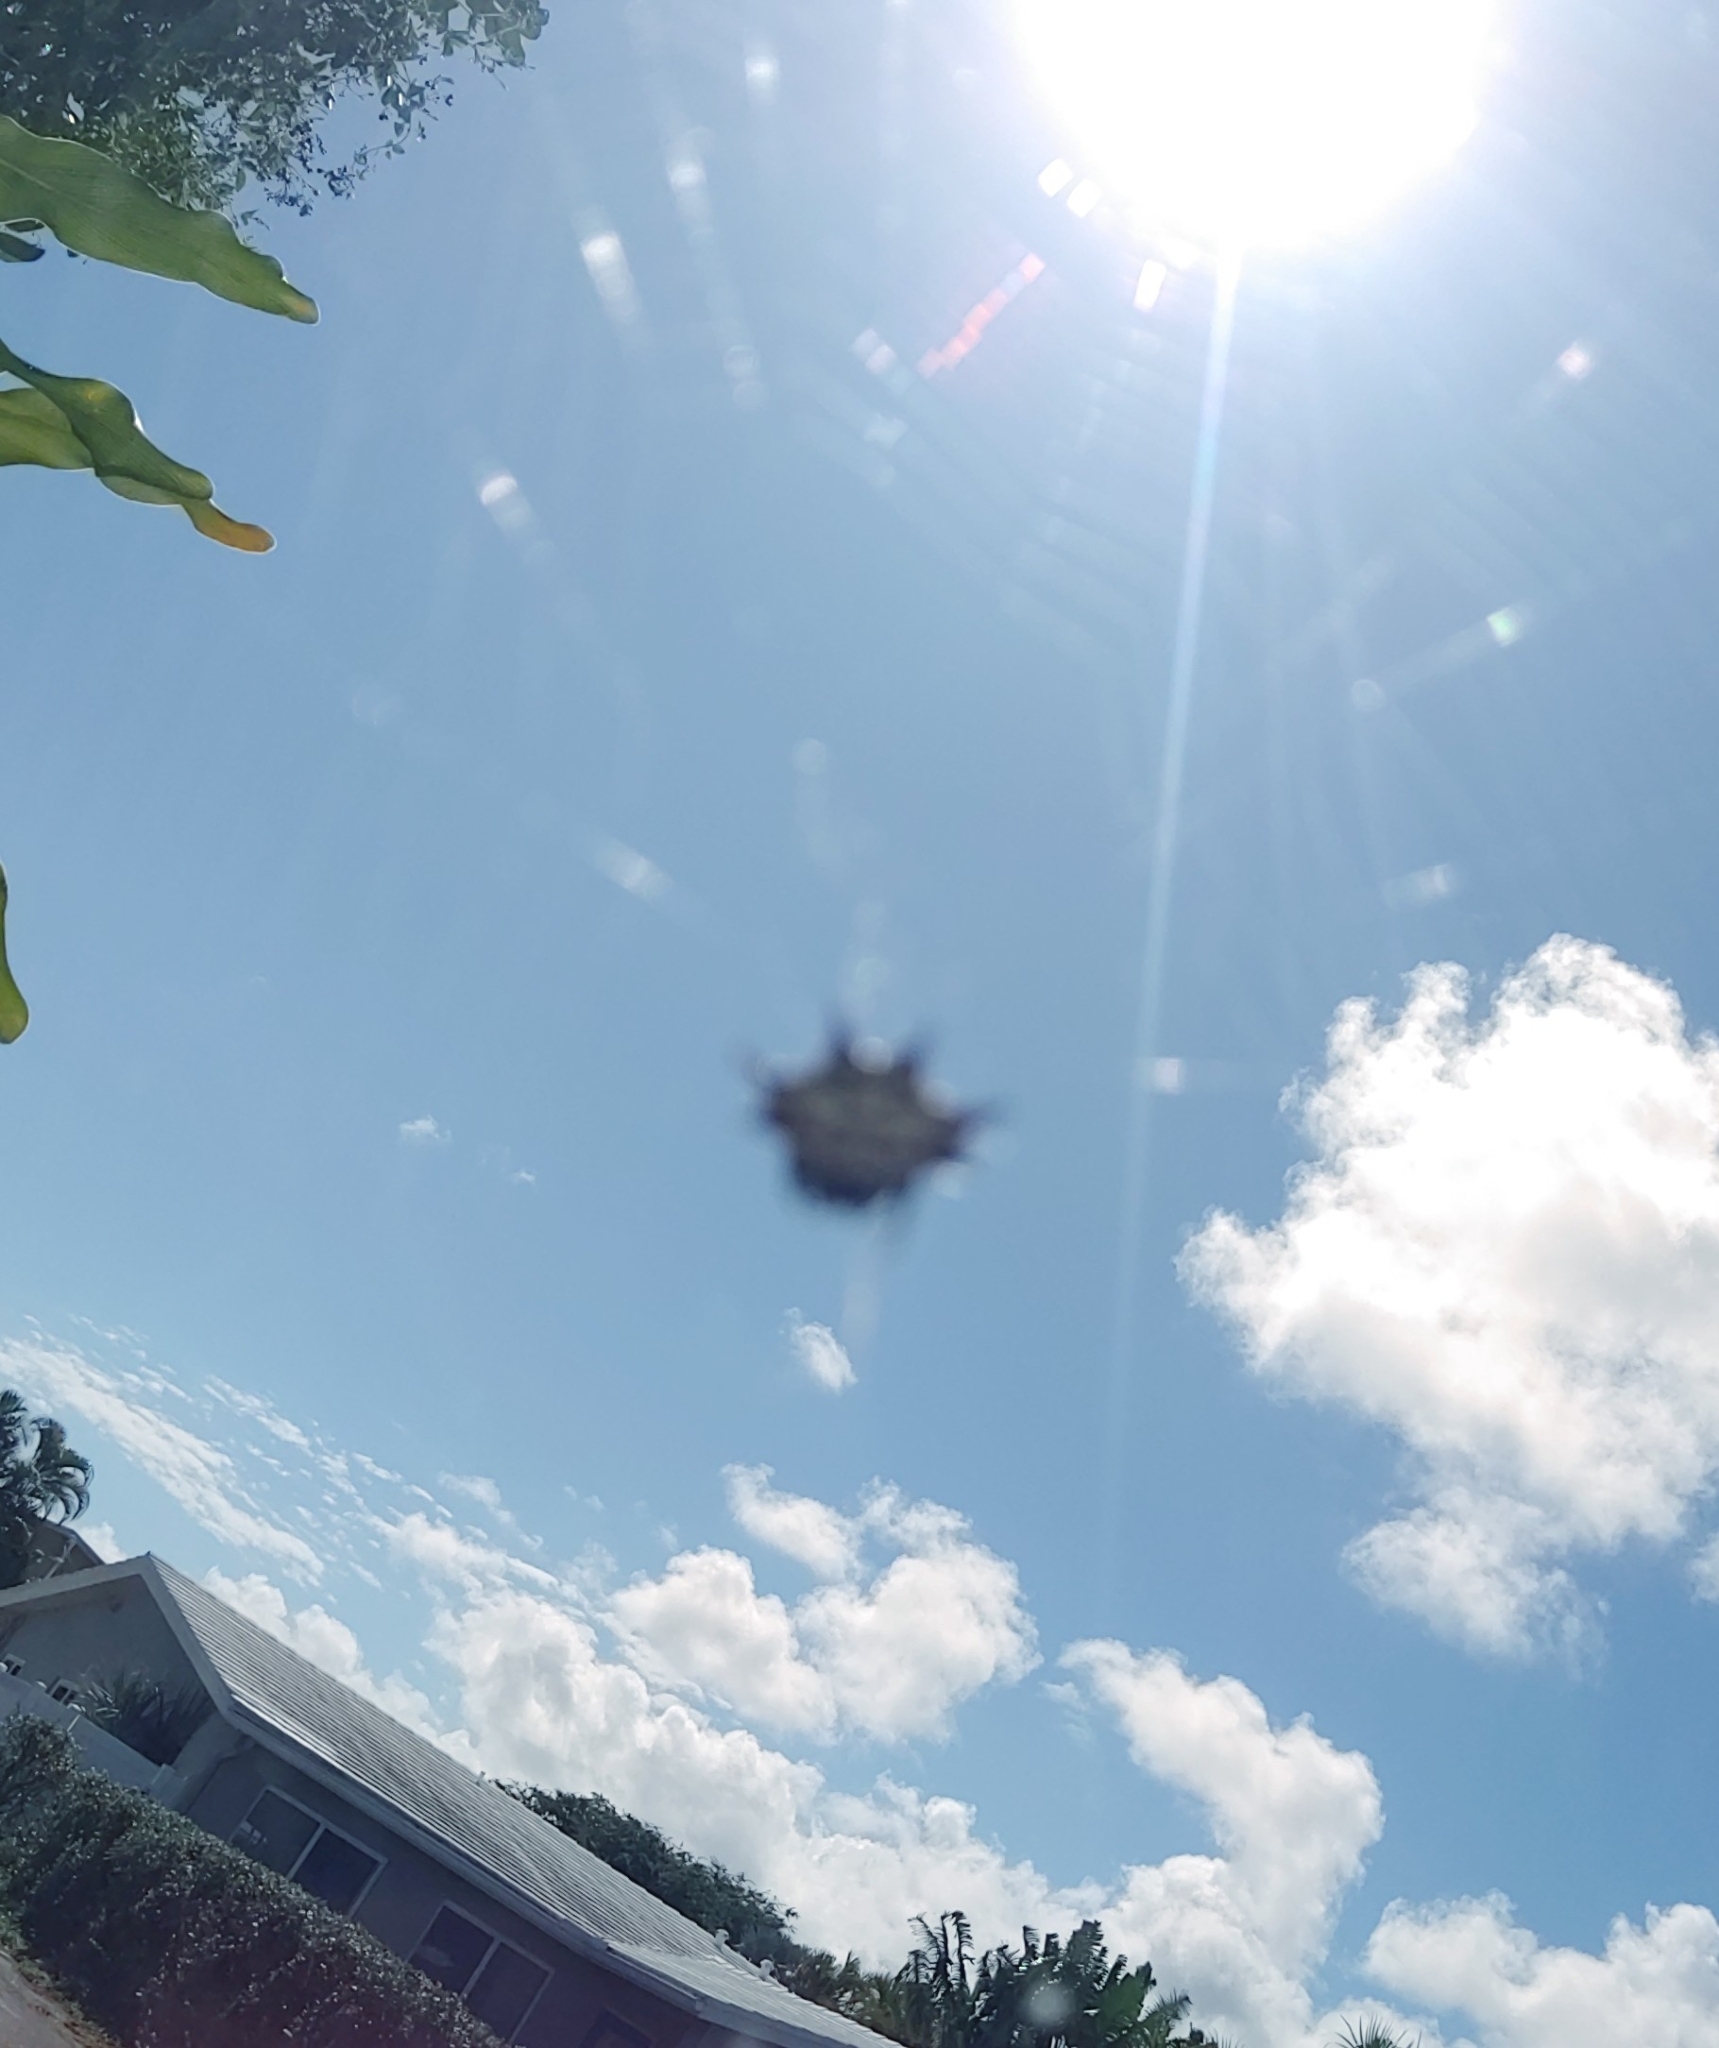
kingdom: Animalia
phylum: Arthropoda
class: Arachnida
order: Araneae
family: Araneidae
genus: Gasteracantha
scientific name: Gasteracantha cancriformis
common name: Orb weavers
